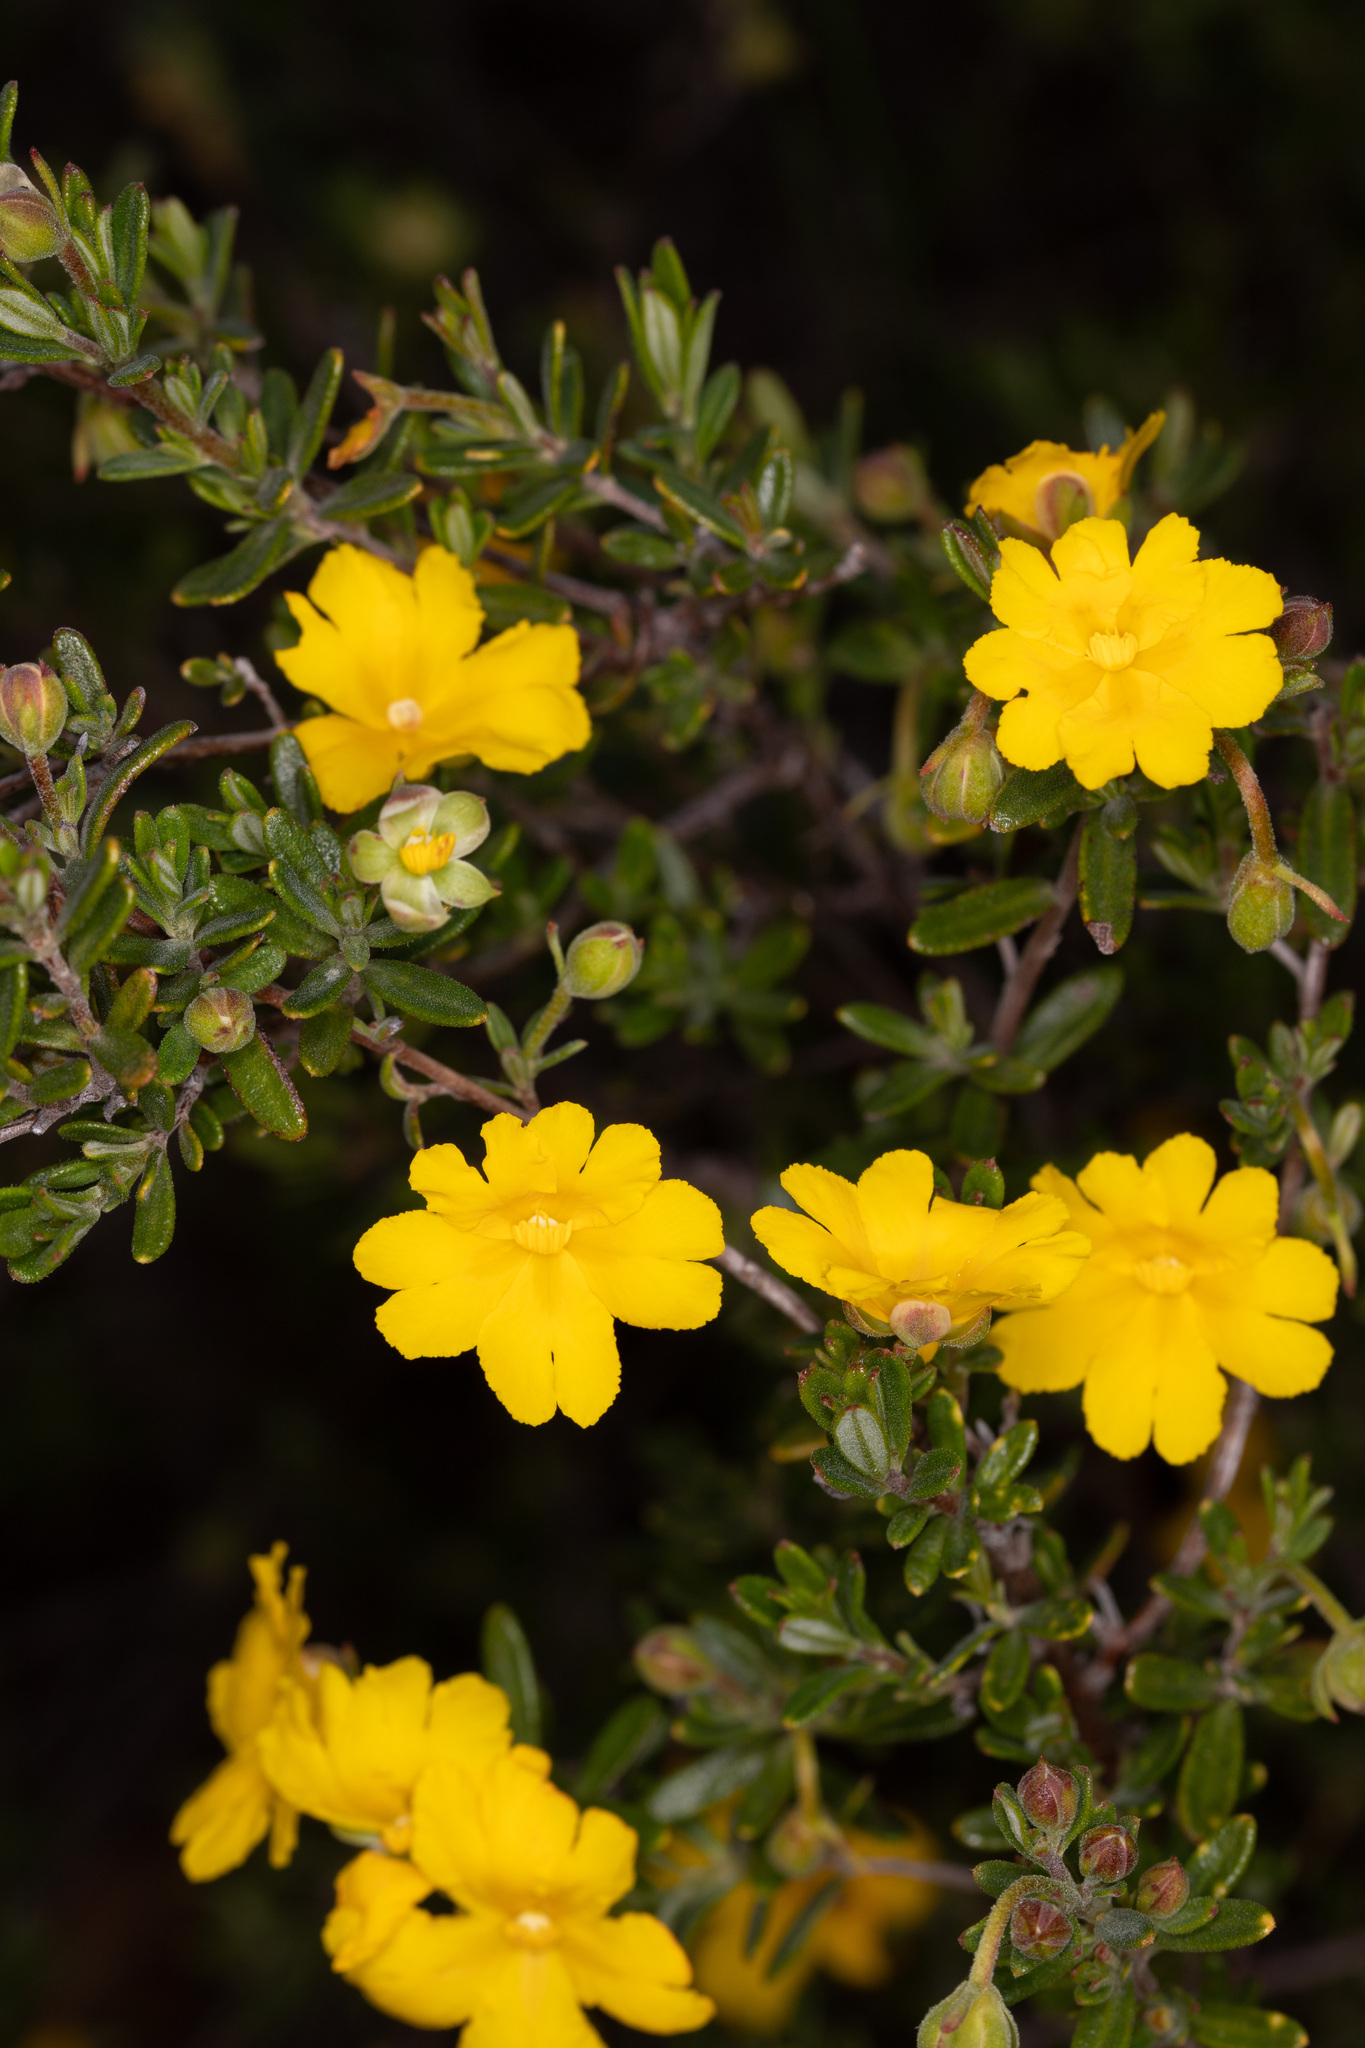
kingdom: Plantae
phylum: Tracheophyta
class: Magnoliopsida
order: Dilleniales
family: Dilleniaceae
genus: Hibbertia
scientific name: Hibbertia hypericoides
